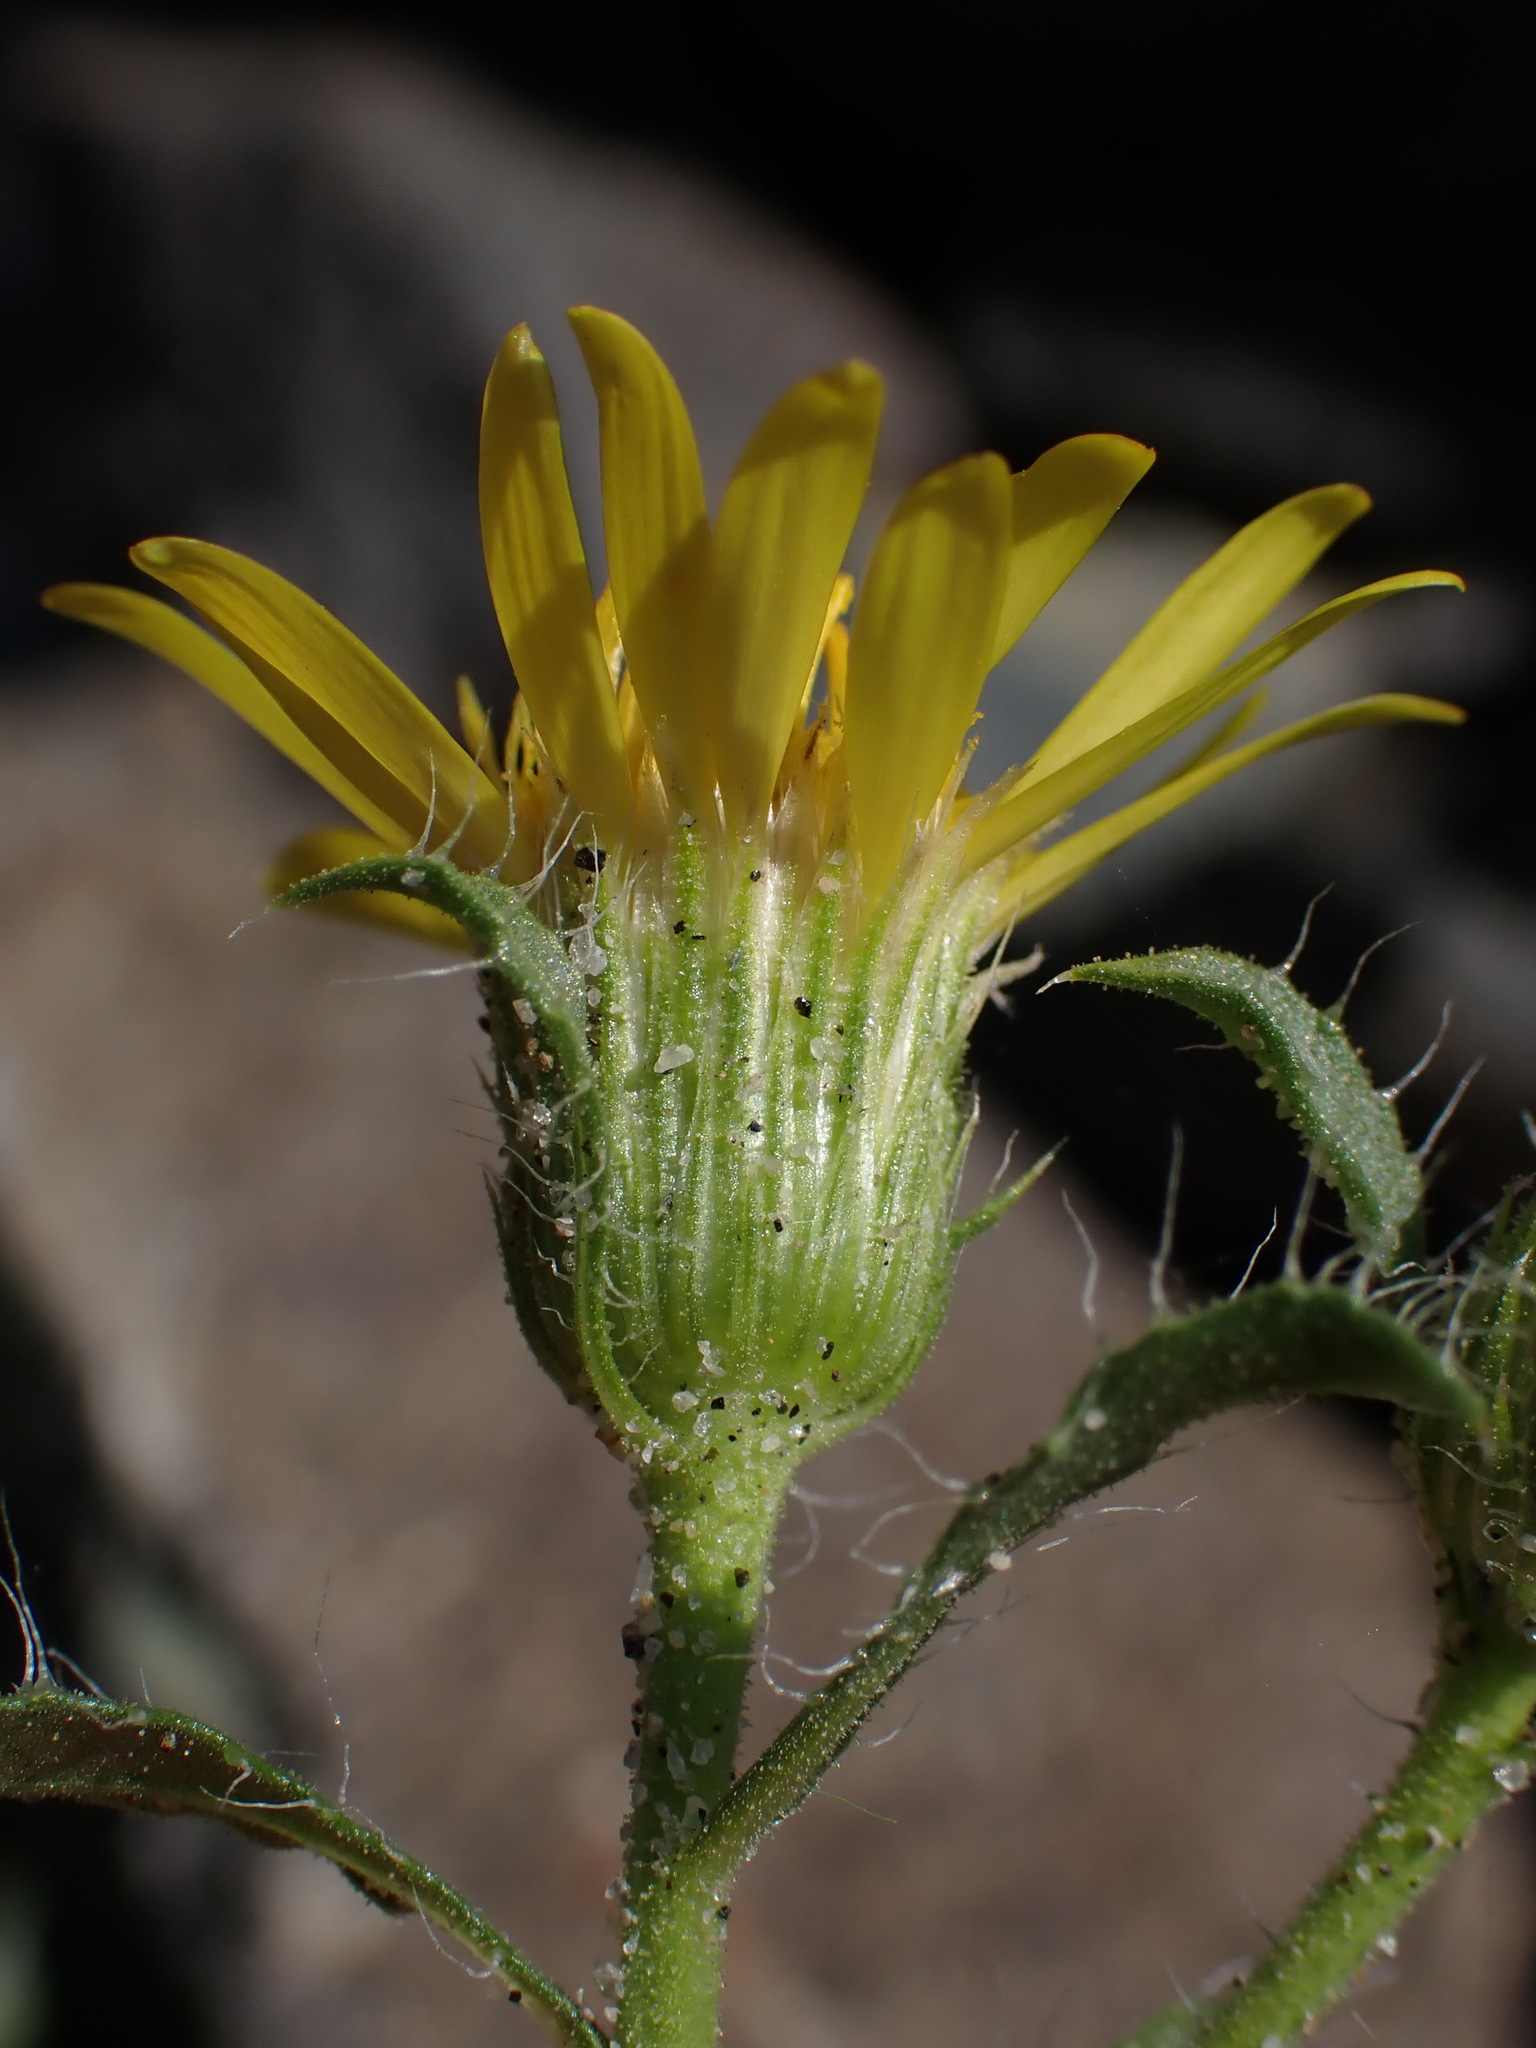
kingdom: Plantae
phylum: Tracheophyta
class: Magnoliopsida
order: Asterales
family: Asteraceae
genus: Heterotheca
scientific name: Heterotheca hirsuta
